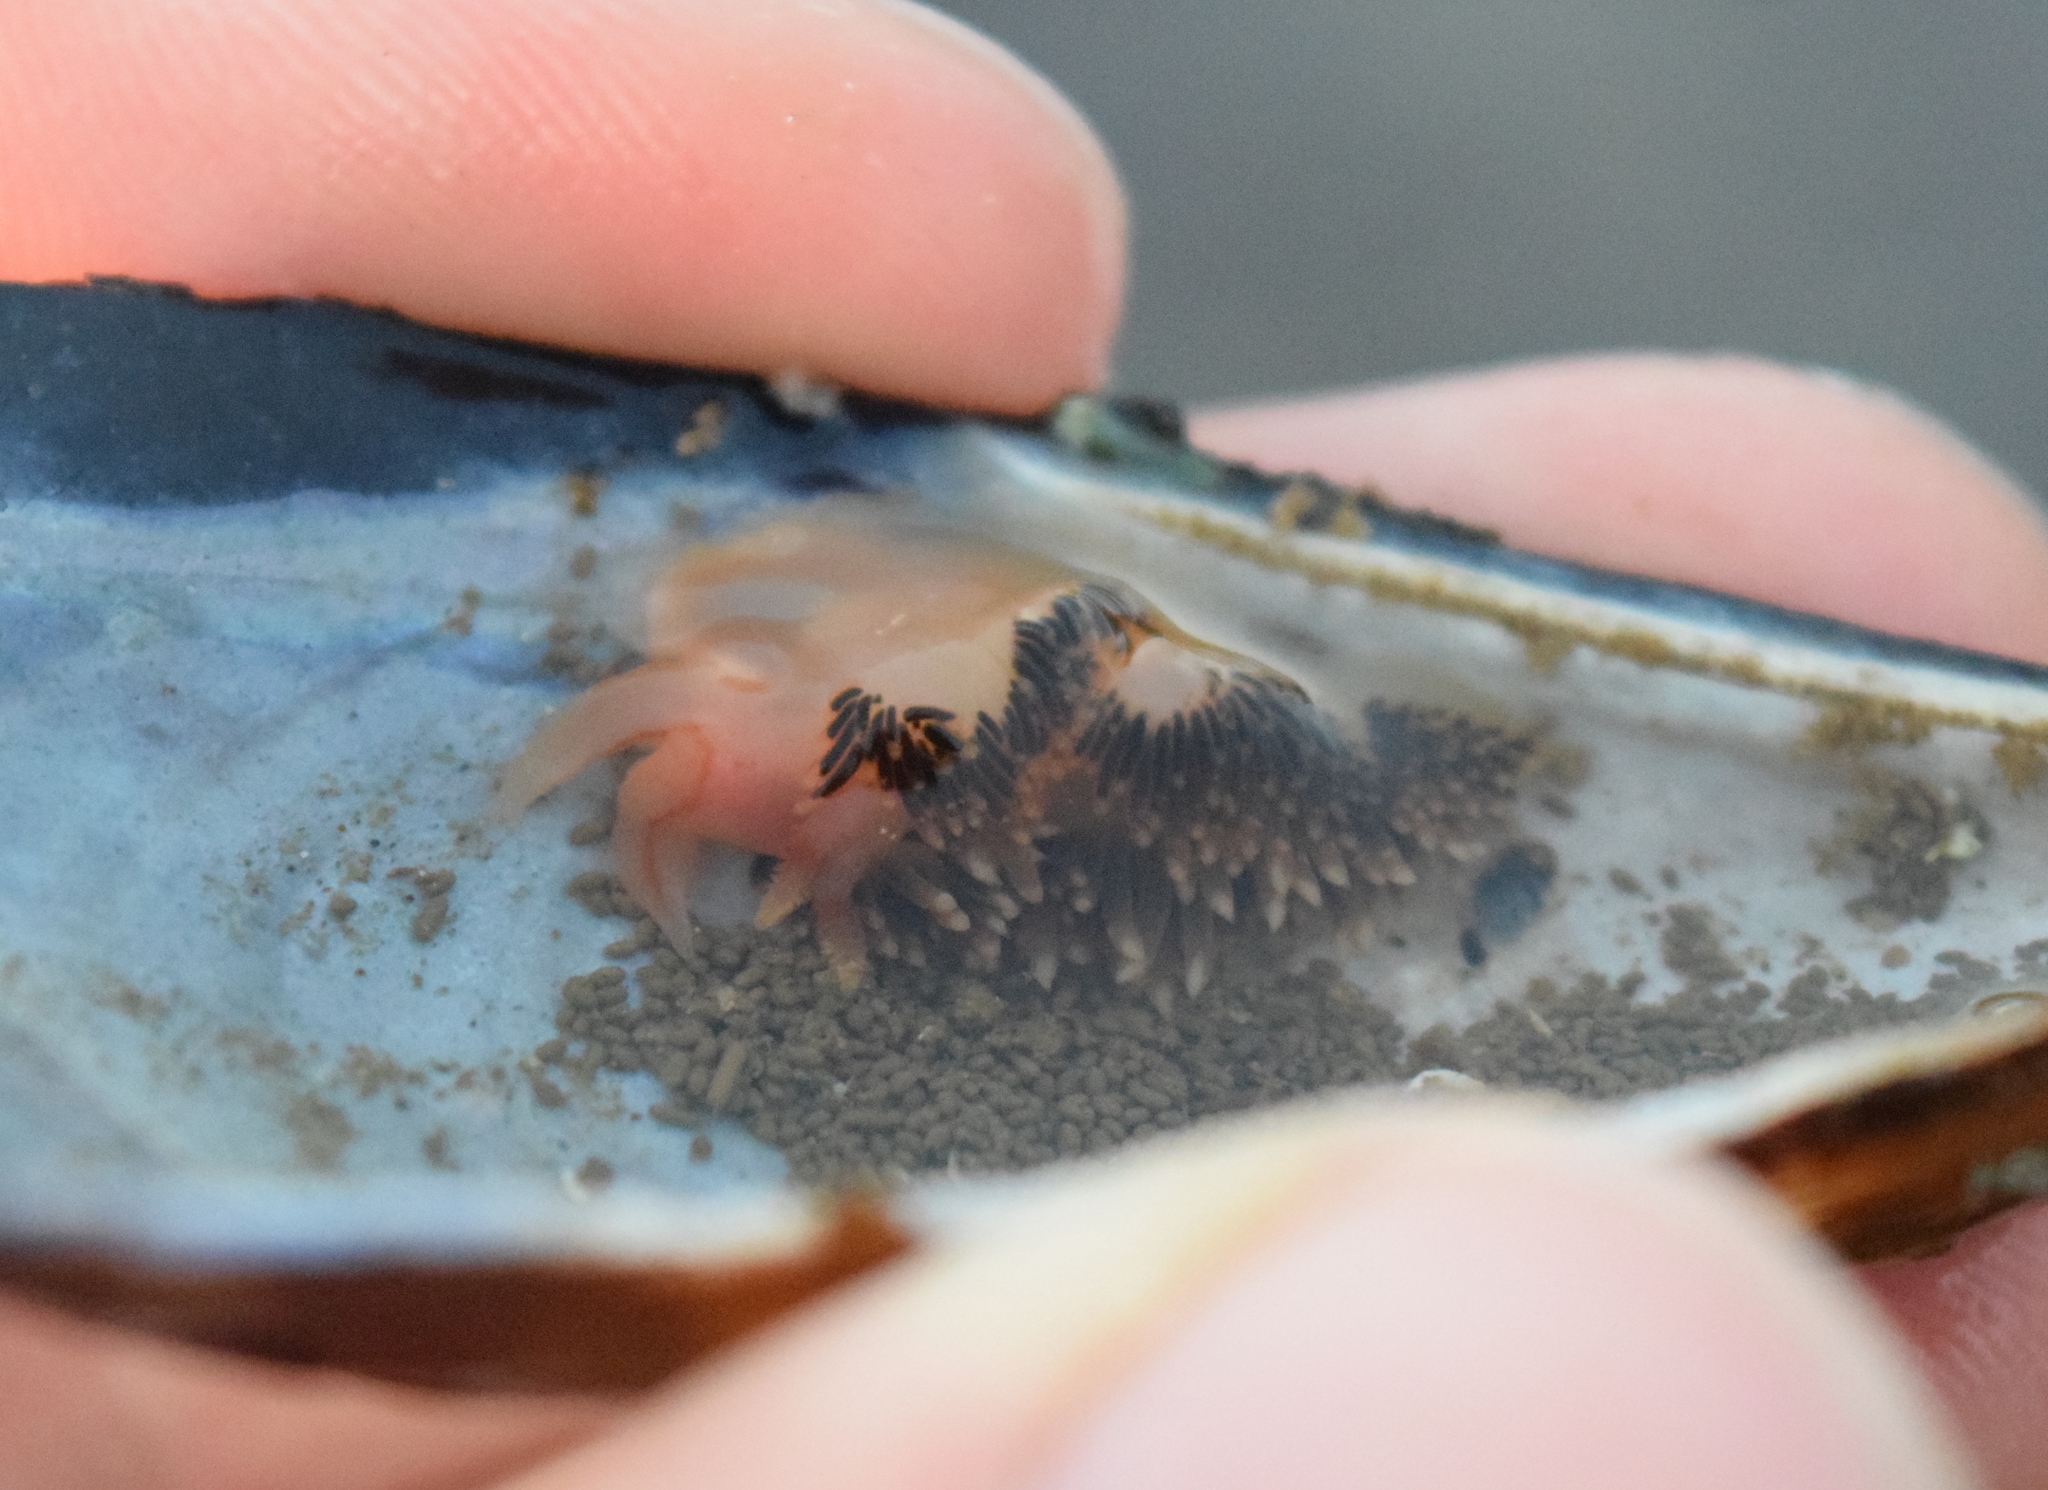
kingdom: Animalia
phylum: Mollusca
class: Gastropoda
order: Nudibranchia
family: Facelinidae
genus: Phidiana
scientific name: Phidiana hiltoni
